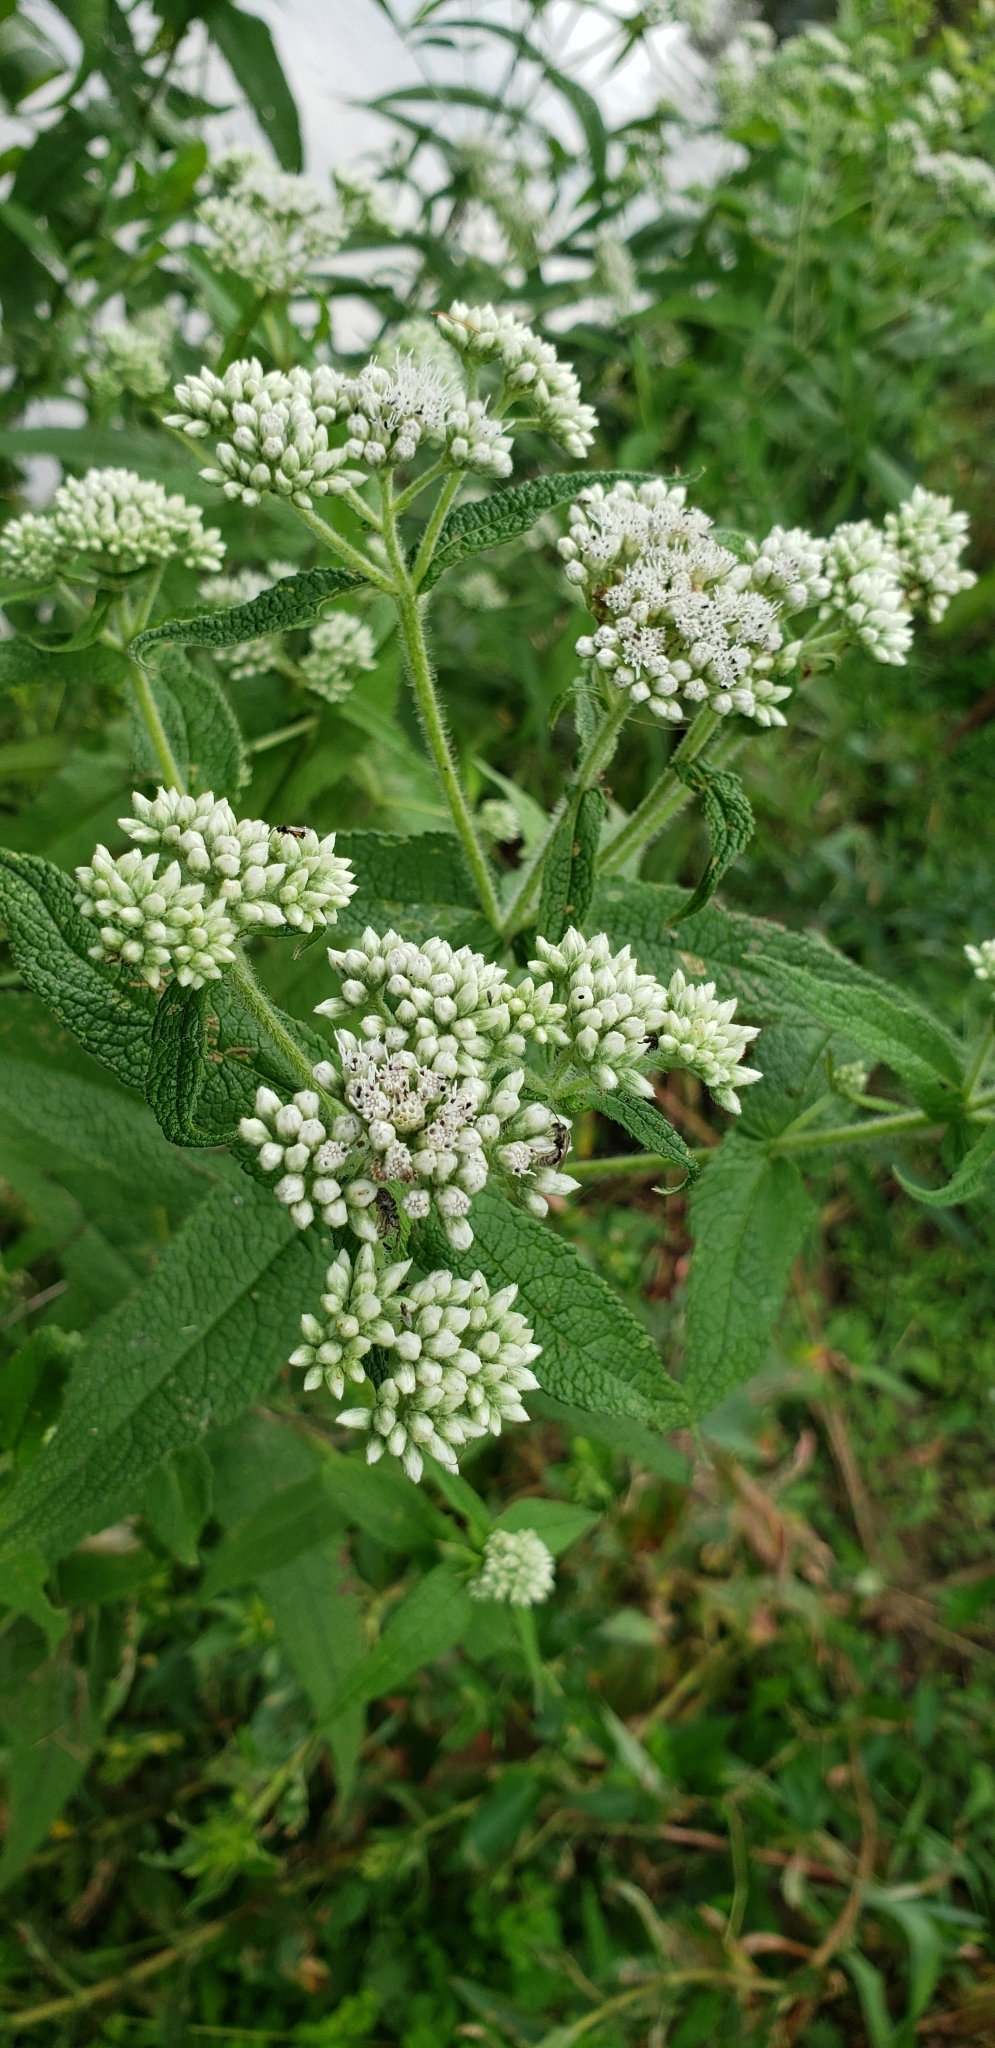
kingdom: Plantae
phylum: Tracheophyta
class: Magnoliopsida
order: Asterales
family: Asteraceae
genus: Eupatorium
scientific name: Eupatorium perfoliatum
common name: Boneset
